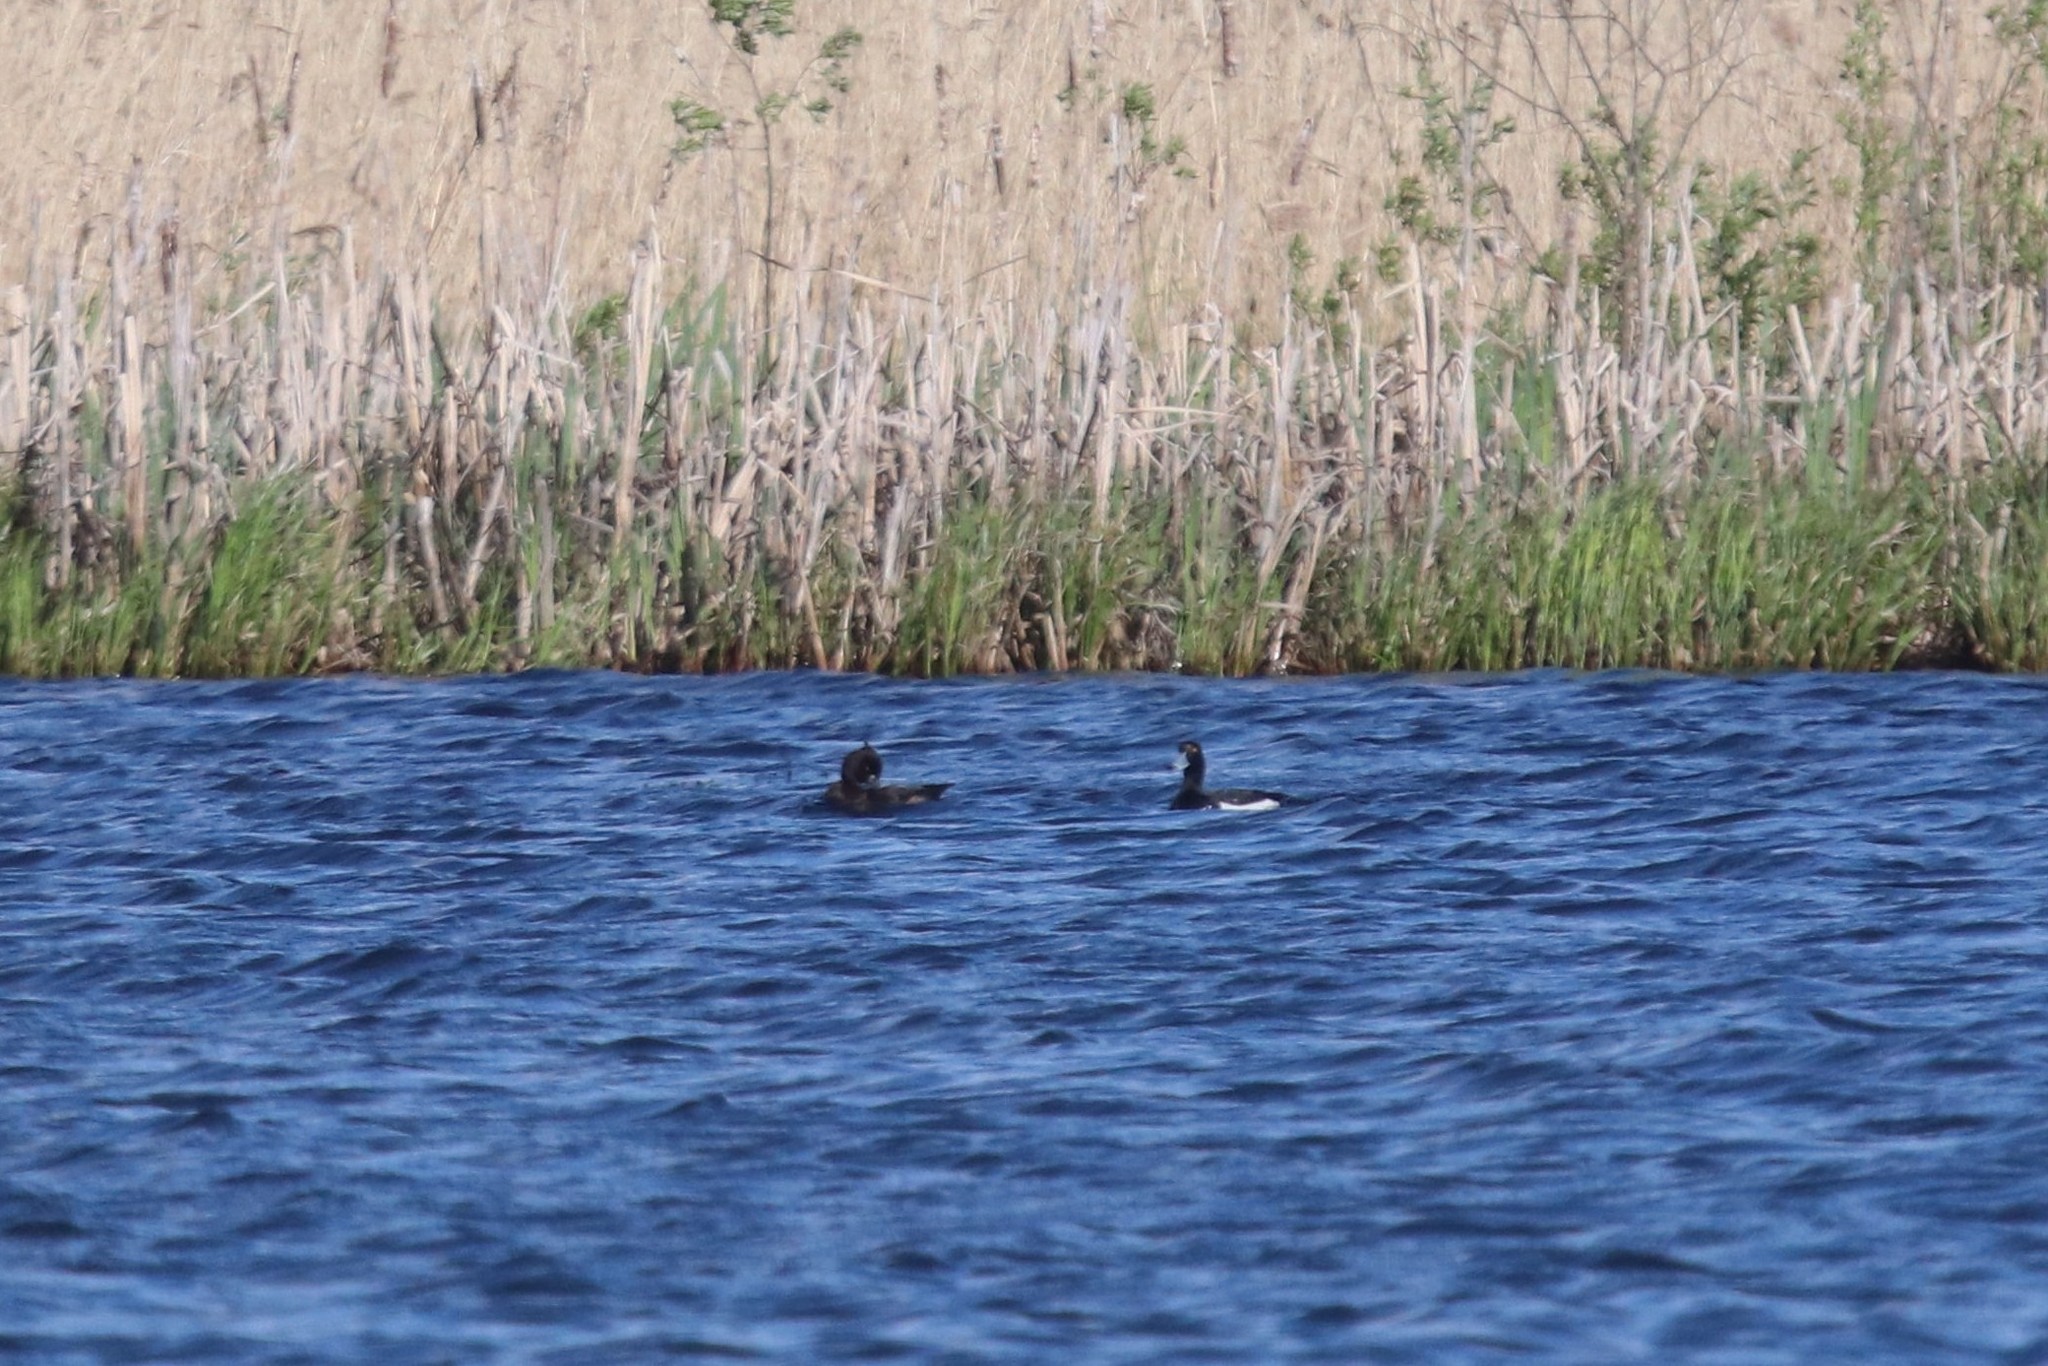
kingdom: Animalia
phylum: Chordata
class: Aves
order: Anseriformes
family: Anatidae
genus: Aythya
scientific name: Aythya fuligula
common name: Tufted duck
